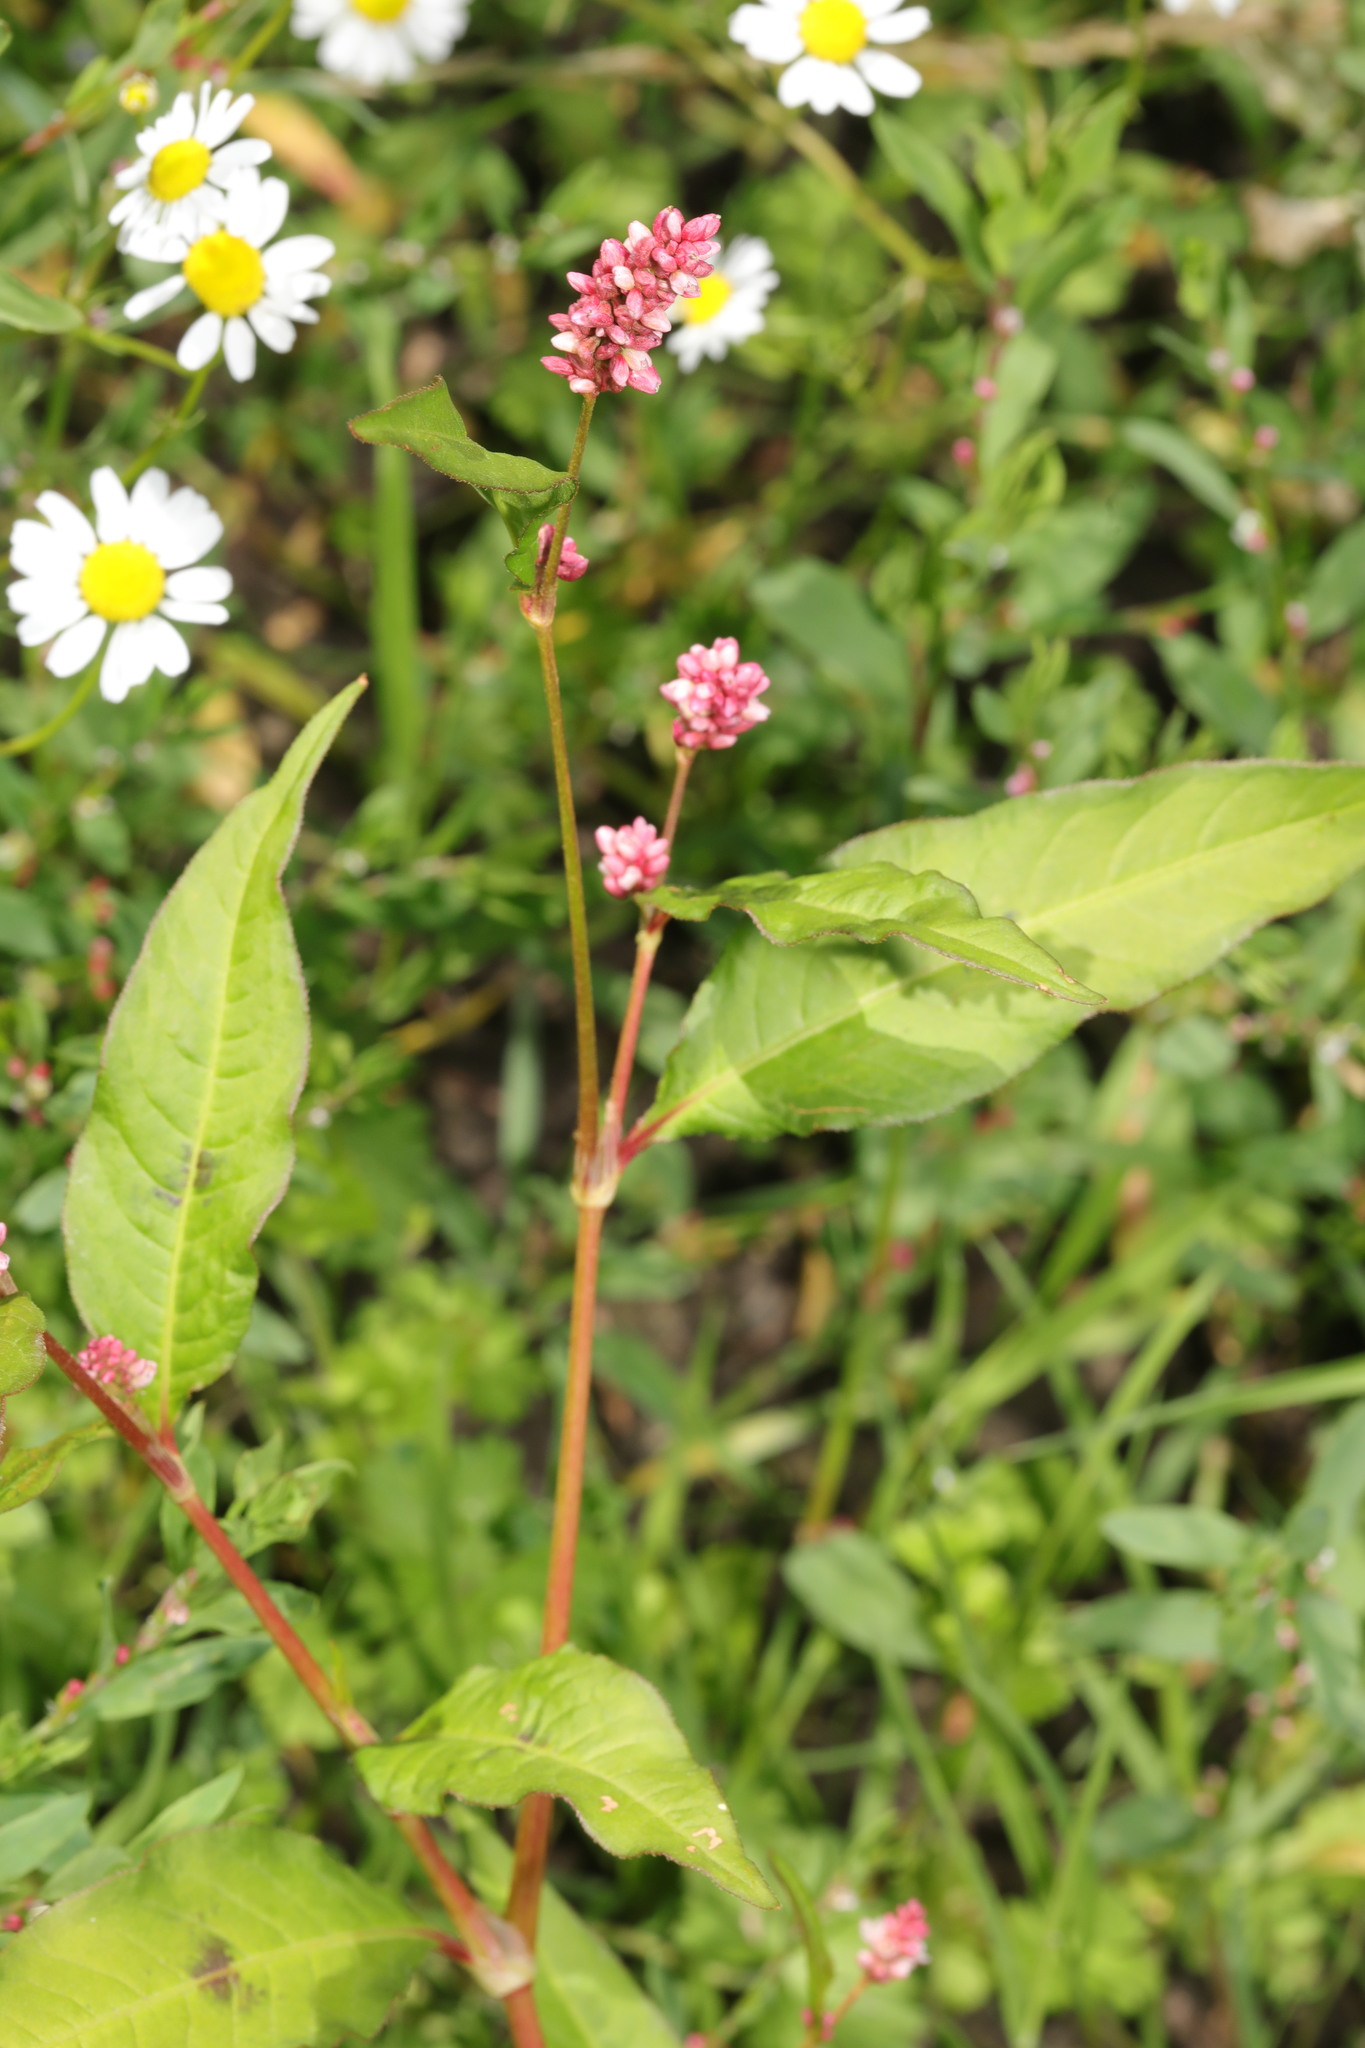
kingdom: Plantae
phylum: Tracheophyta
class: Magnoliopsida
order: Caryophyllales
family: Polygonaceae
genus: Persicaria
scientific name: Persicaria maculosa
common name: Redshank
